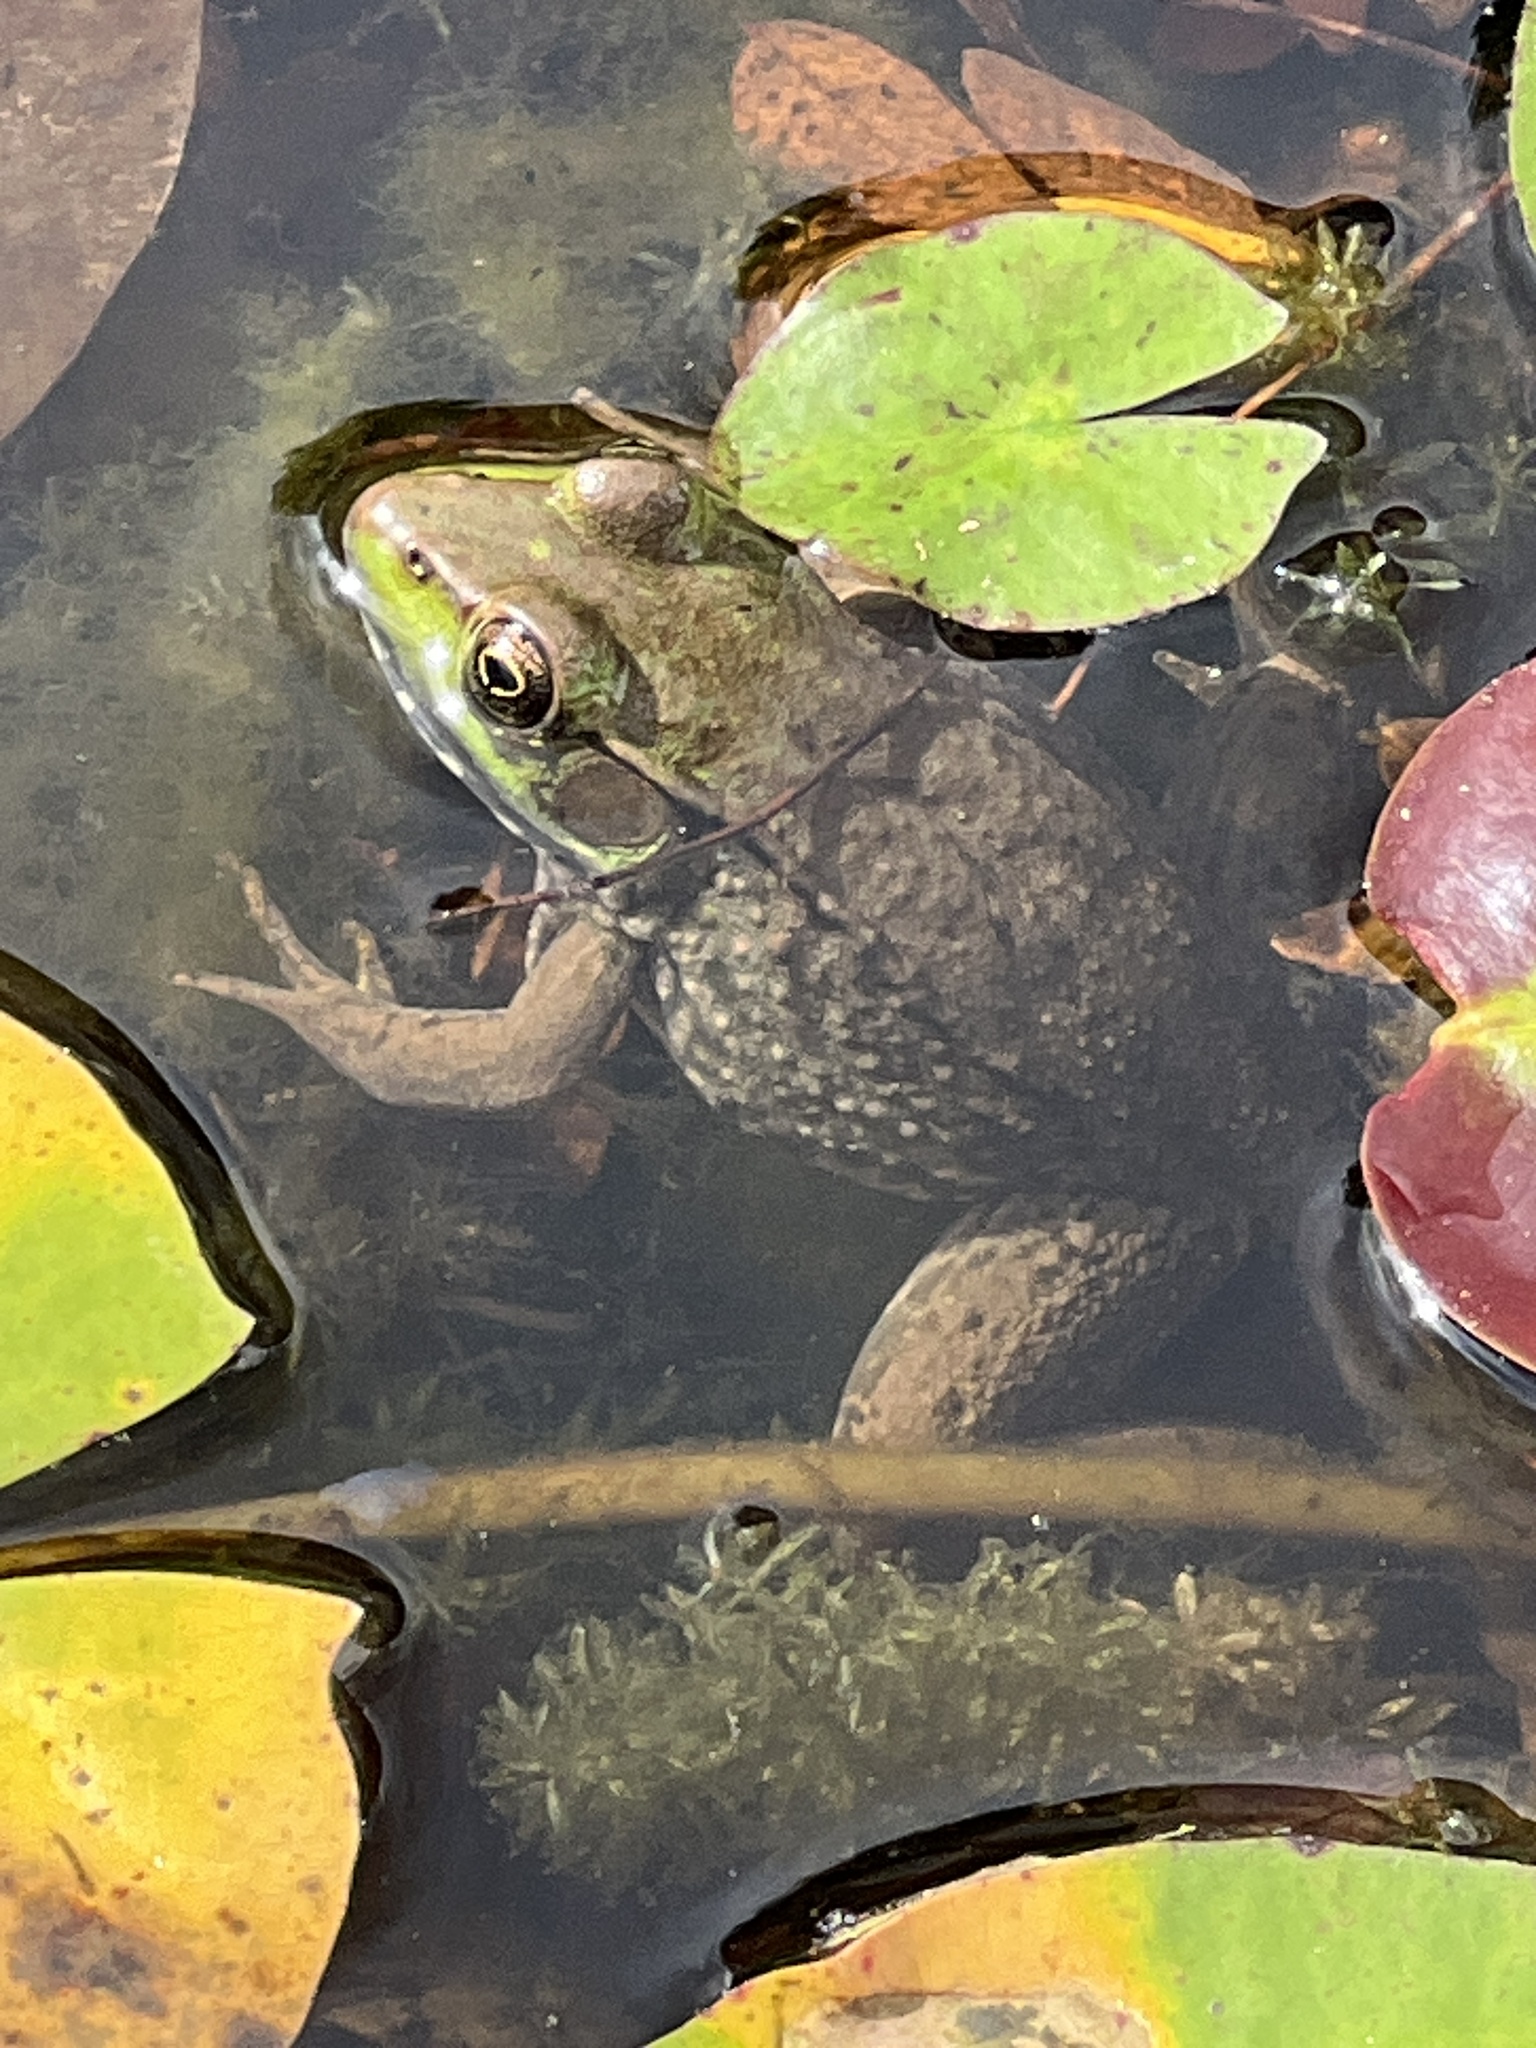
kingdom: Animalia
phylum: Chordata
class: Amphibia
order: Anura
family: Ranidae
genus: Lithobates
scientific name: Lithobates clamitans
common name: Green frog
